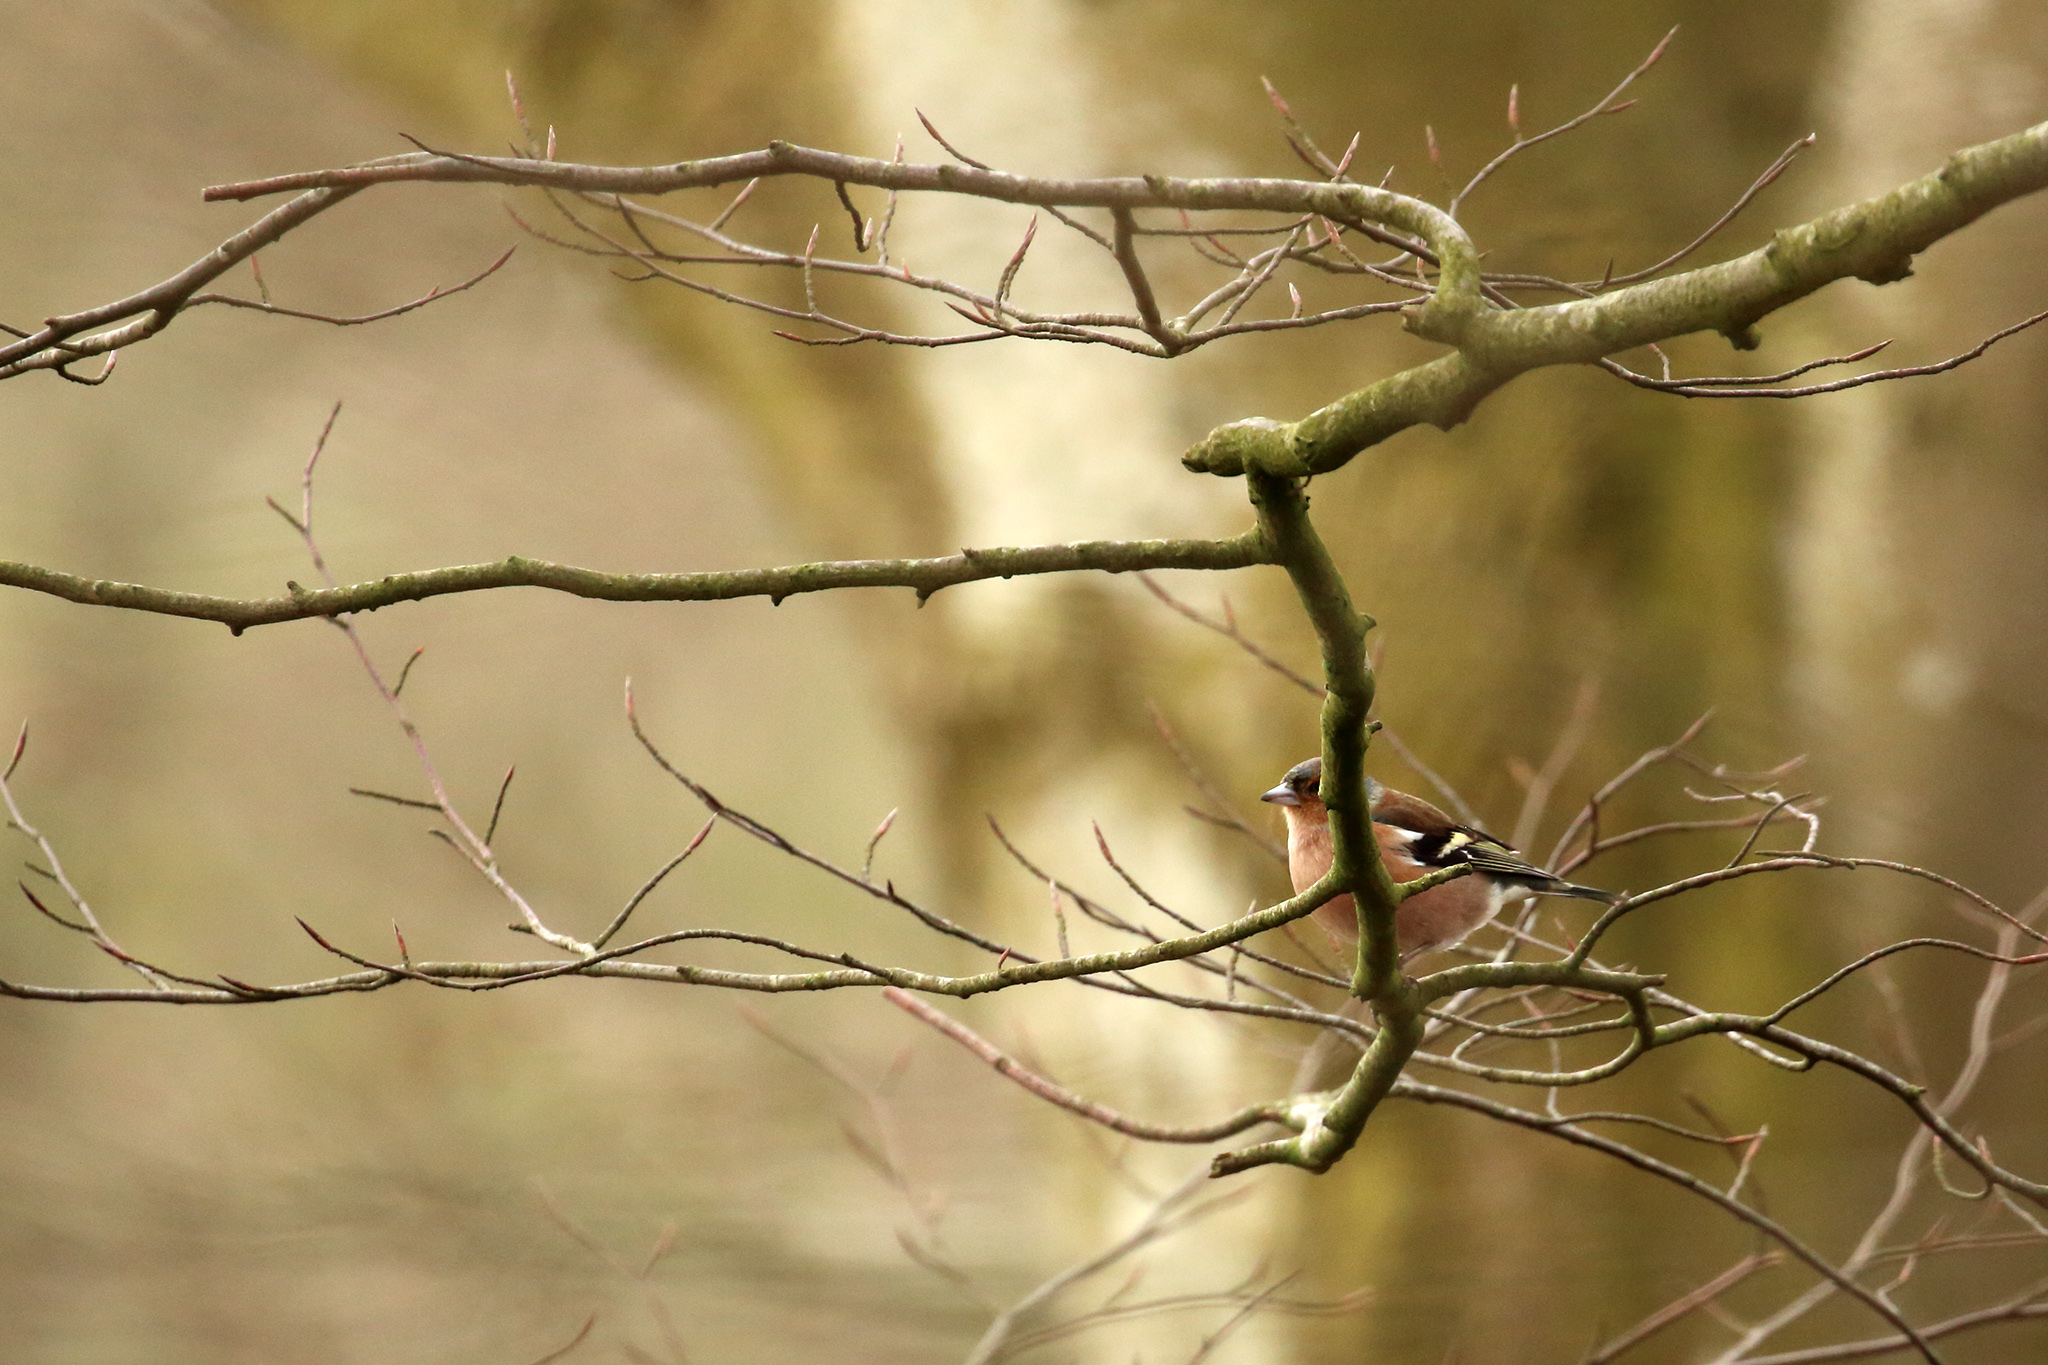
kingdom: Animalia
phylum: Chordata
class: Aves
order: Passeriformes
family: Fringillidae
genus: Fringilla
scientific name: Fringilla coelebs
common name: Common chaffinch
